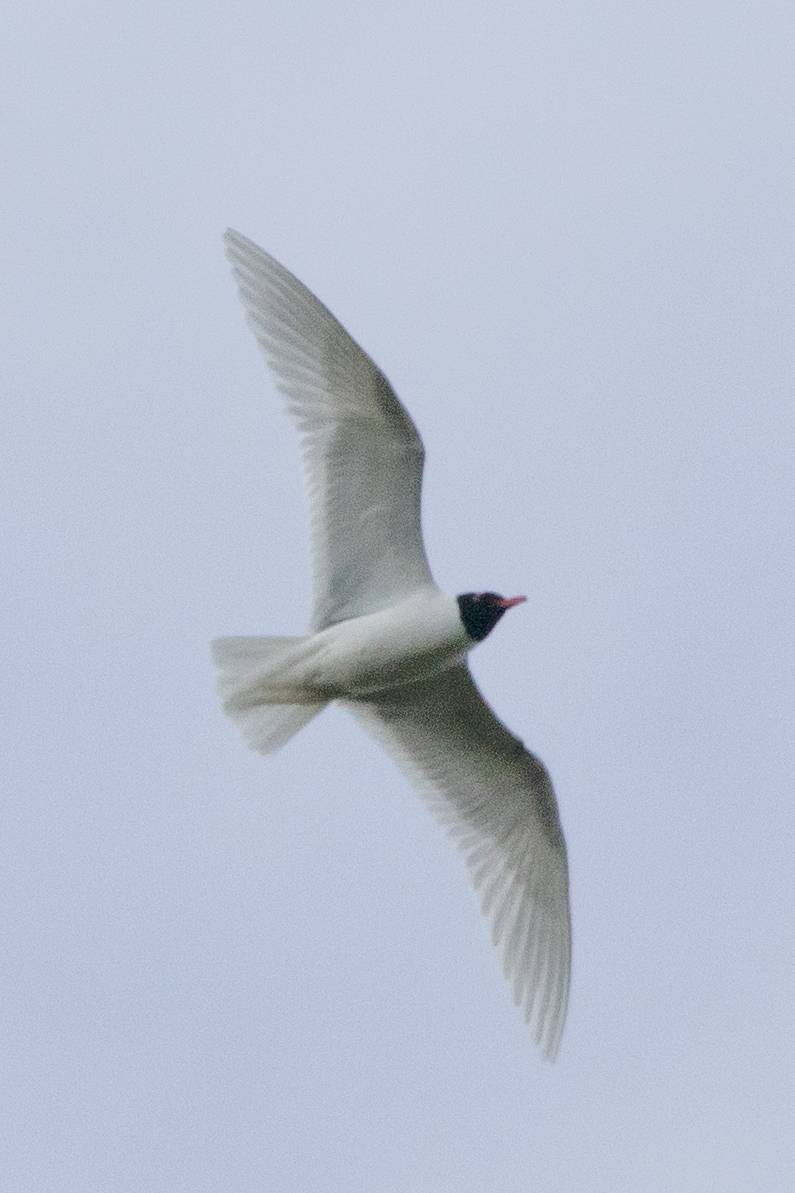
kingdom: Animalia
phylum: Chordata
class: Aves
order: Charadriiformes
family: Laridae
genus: Ichthyaetus
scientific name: Ichthyaetus melanocephalus
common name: Mediterranean gull
